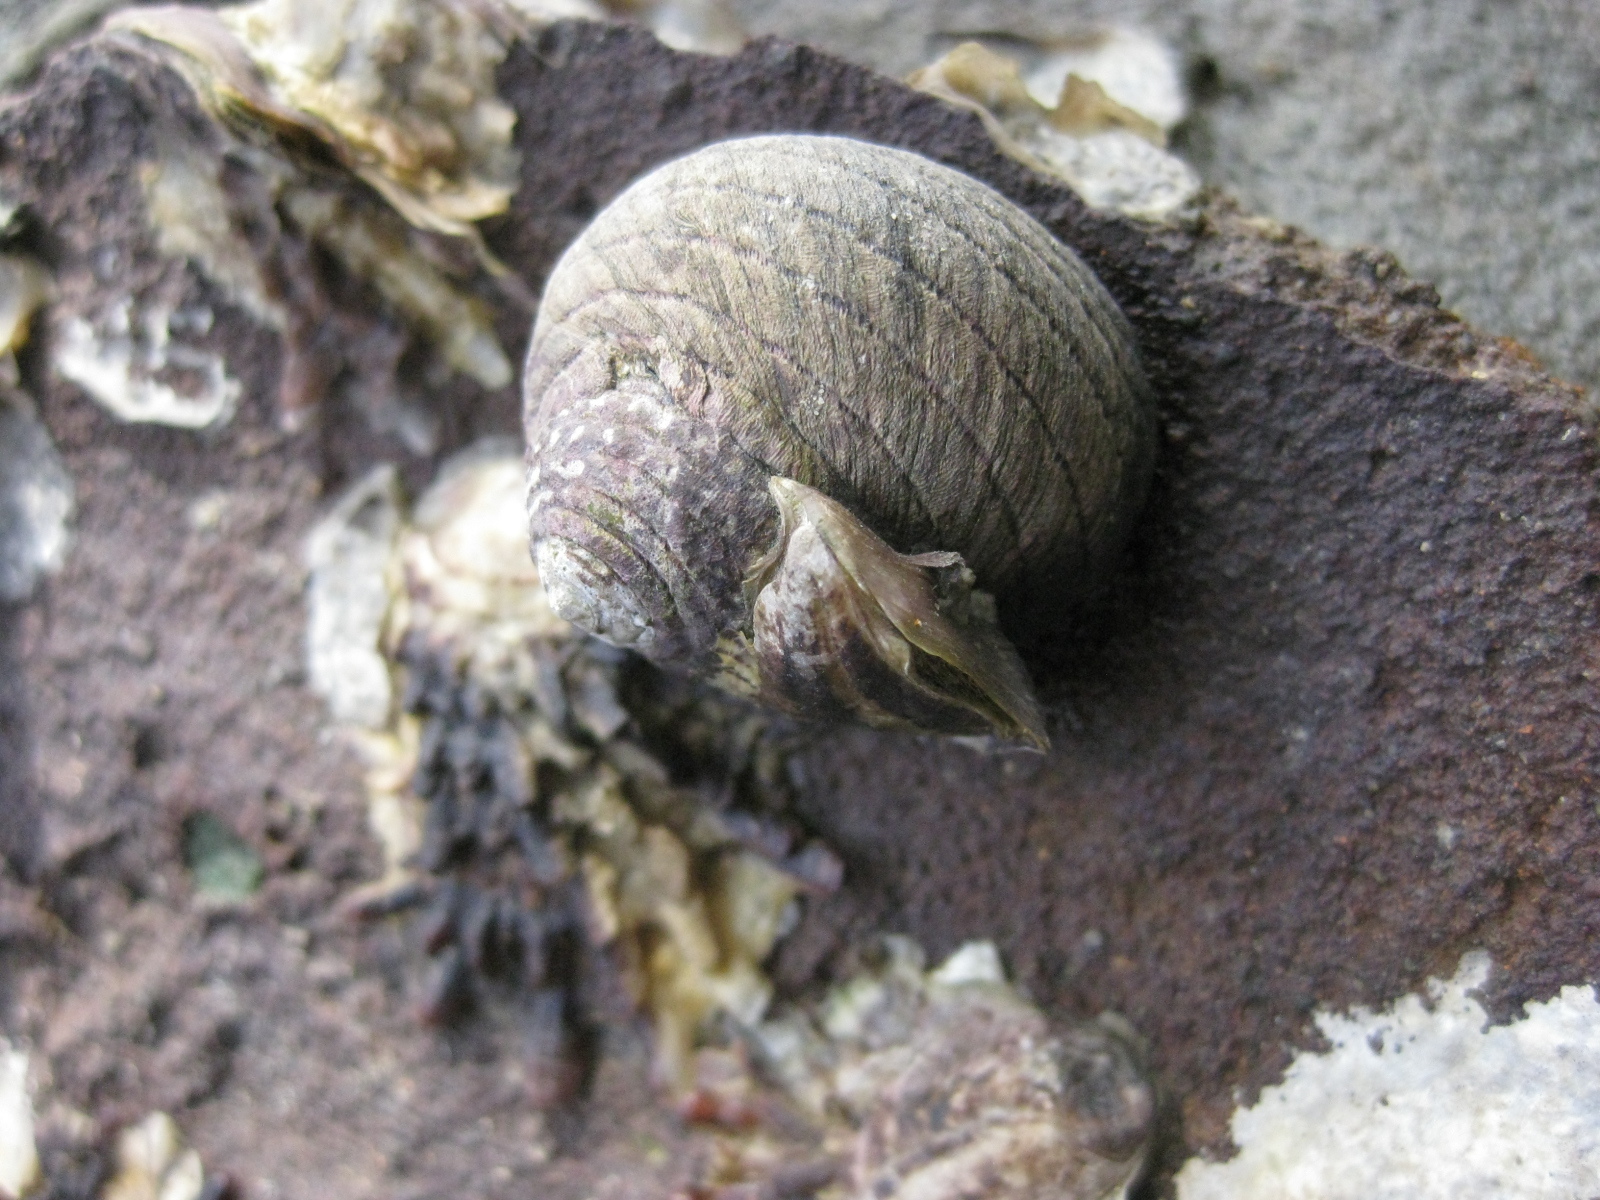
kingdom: Animalia
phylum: Mollusca
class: Gastropoda
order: Trochida
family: Trochidae
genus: Diloma
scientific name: Diloma aethiops
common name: Scorched monodont
